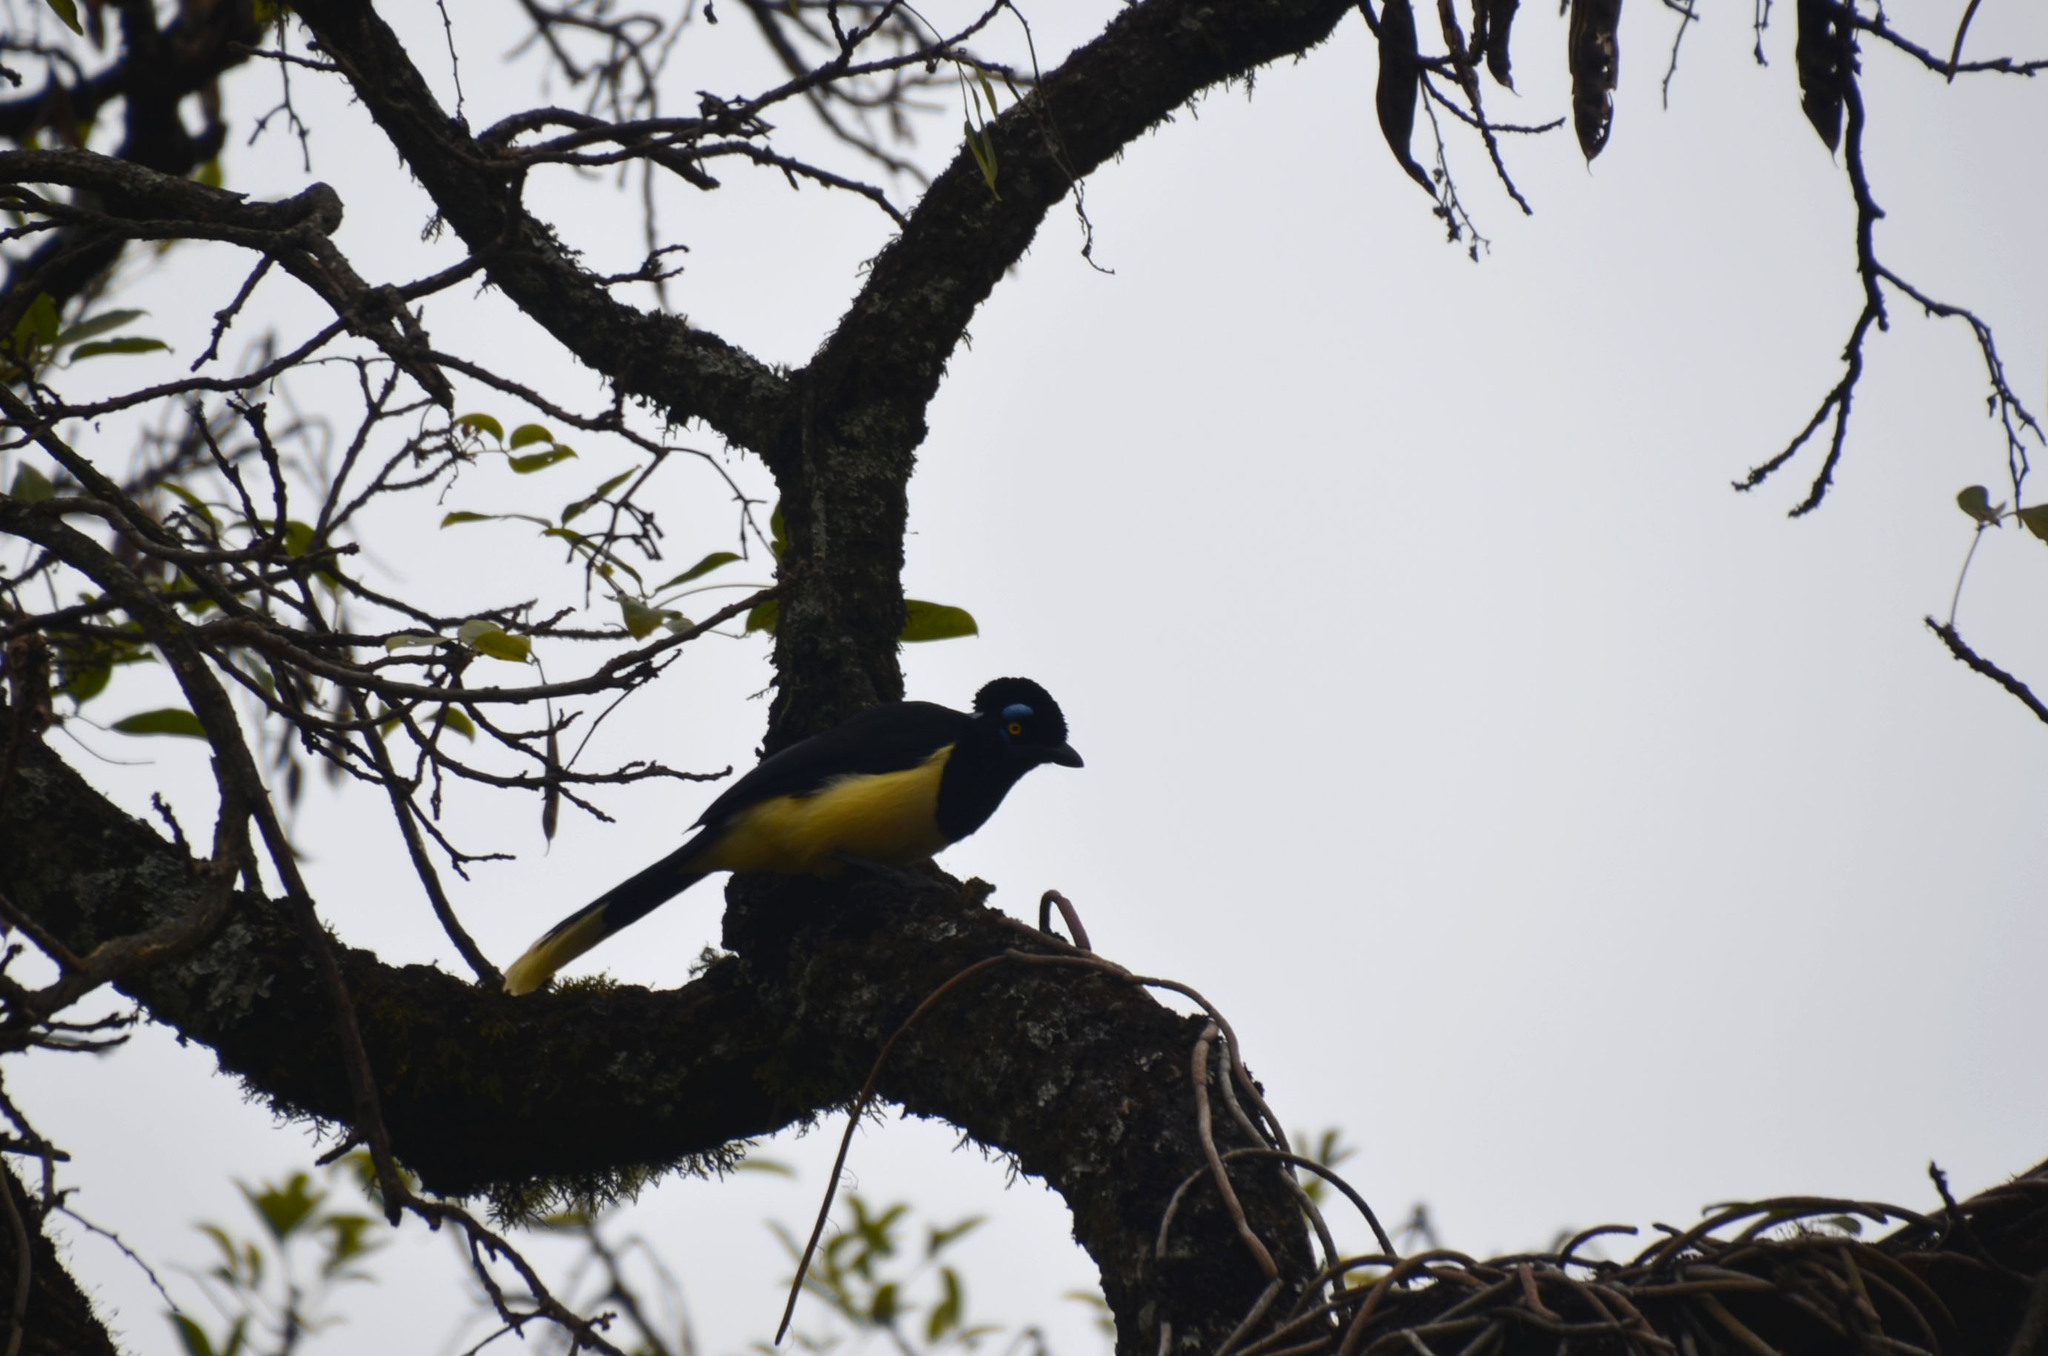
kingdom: Animalia
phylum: Chordata
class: Aves
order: Passeriformes
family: Corvidae
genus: Cyanocorax
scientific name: Cyanocorax chrysops
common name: Plush-crested jay
